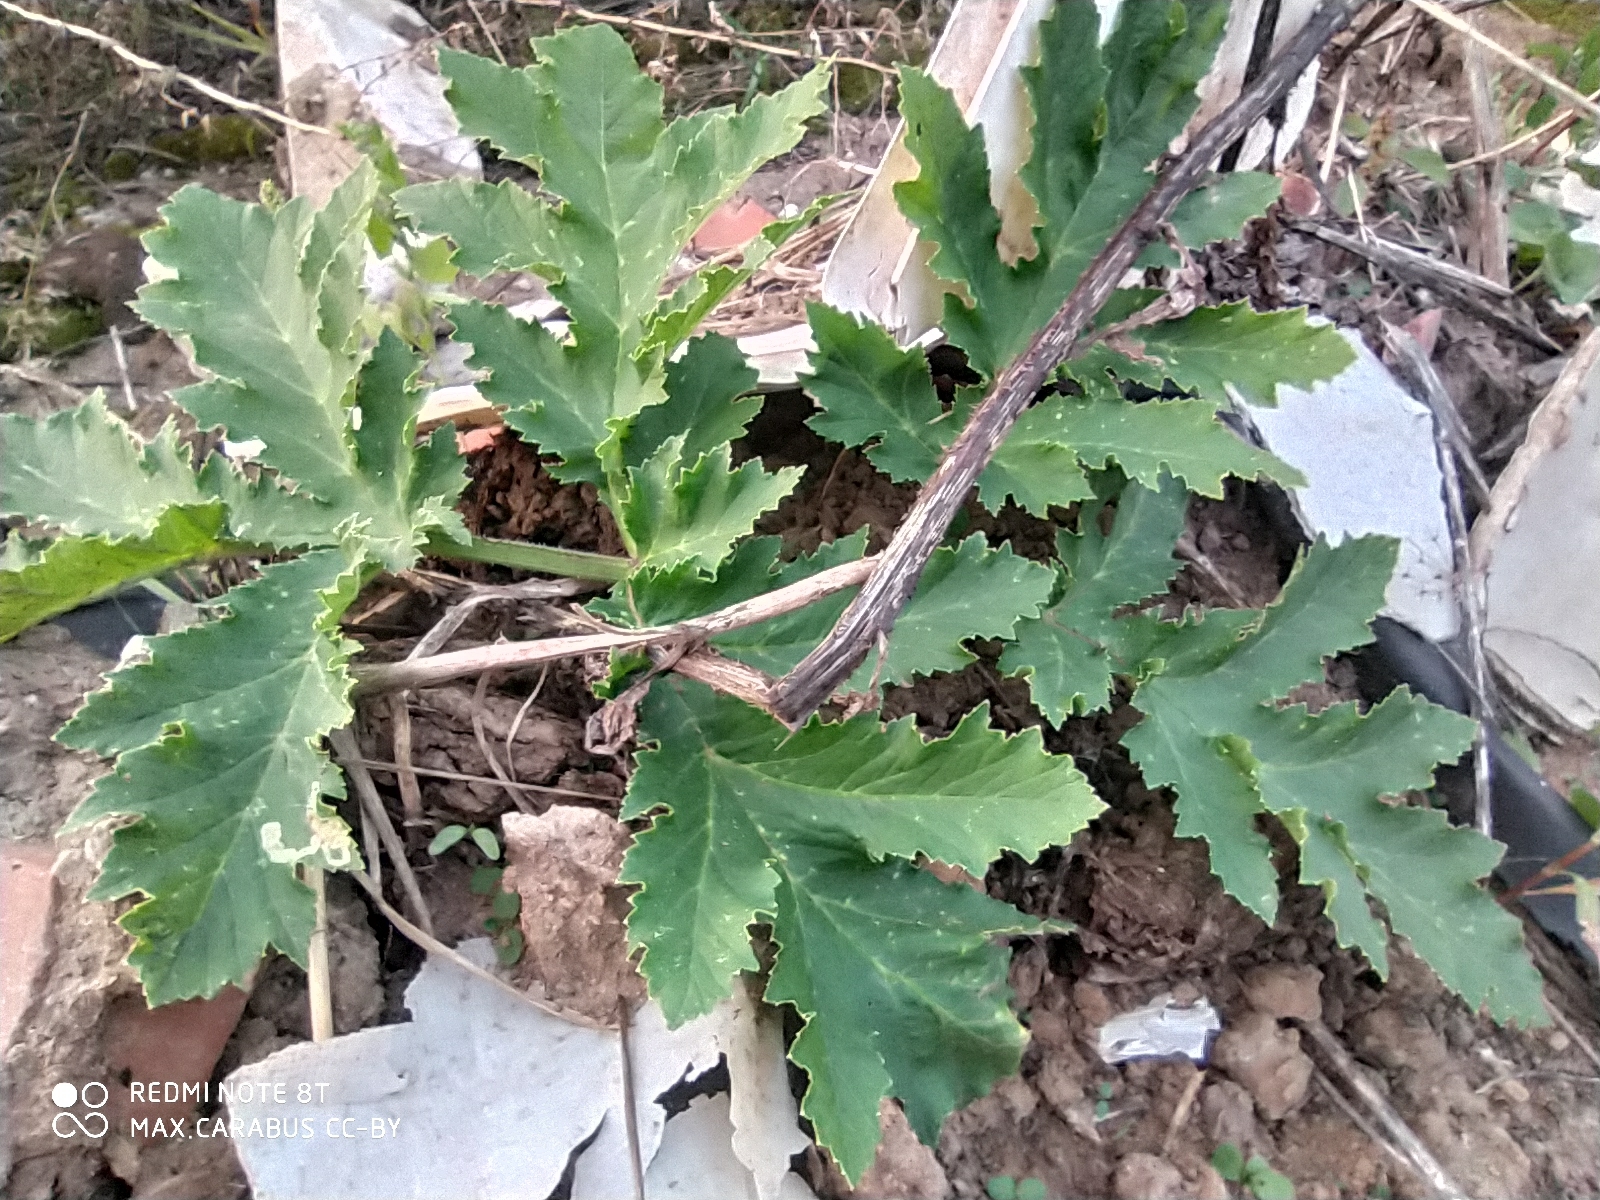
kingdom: Plantae
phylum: Tracheophyta
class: Magnoliopsida
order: Apiales
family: Apiaceae
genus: Heracleum
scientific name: Heracleum sosnowskyi
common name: Sosnowsky's hogweed
